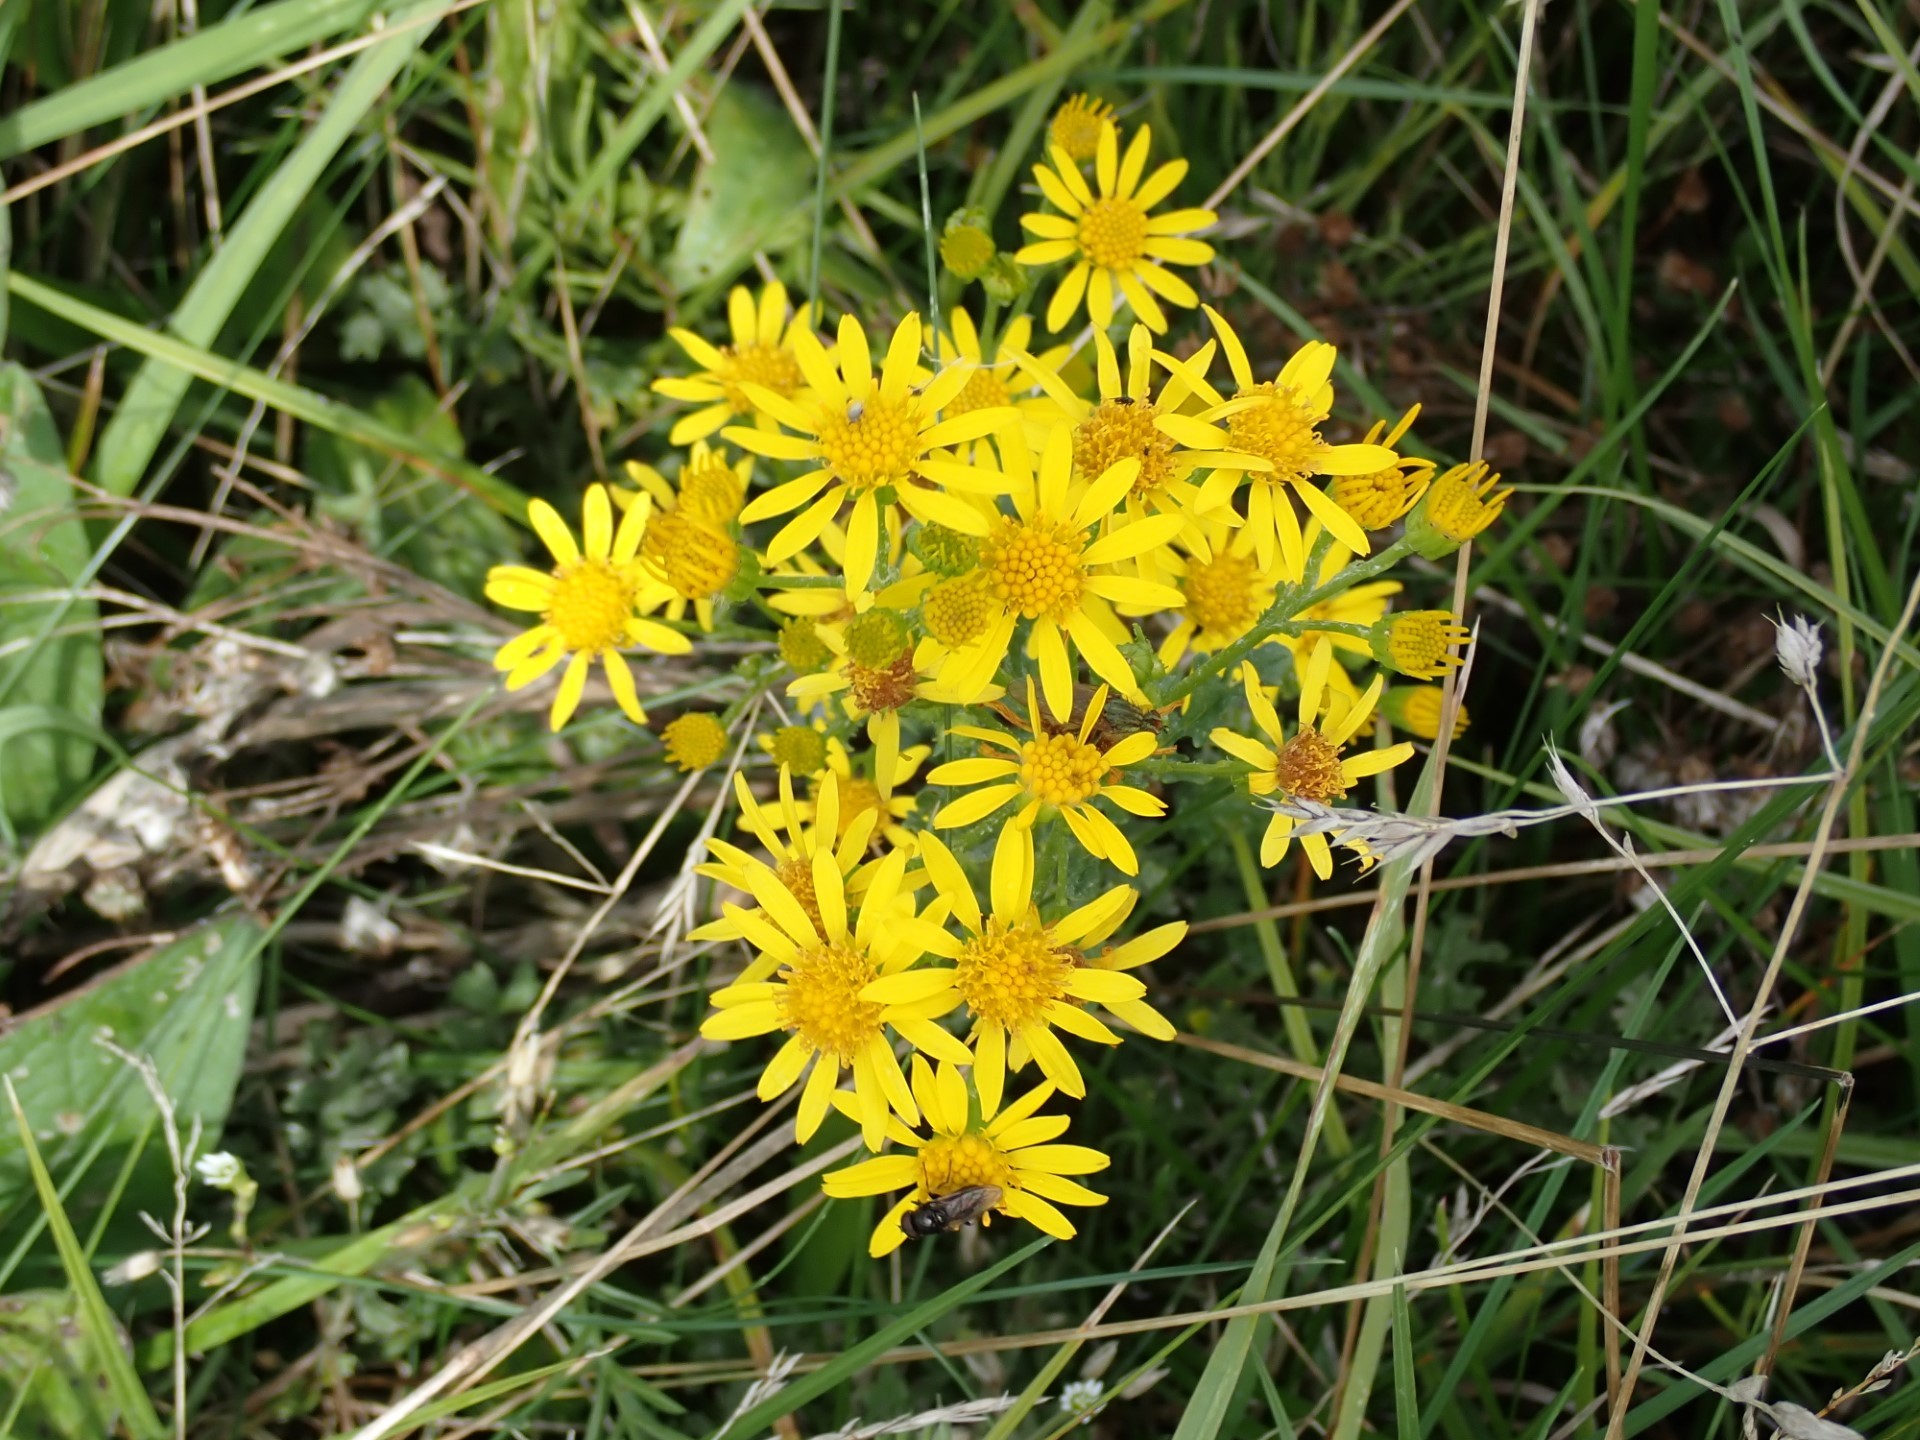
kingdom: Plantae
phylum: Tracheophyta
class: Magnoliopsida
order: Asterales
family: Asteraceae
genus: Jacobaea
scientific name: Jacobaea vulgaris
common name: Stinking willie
